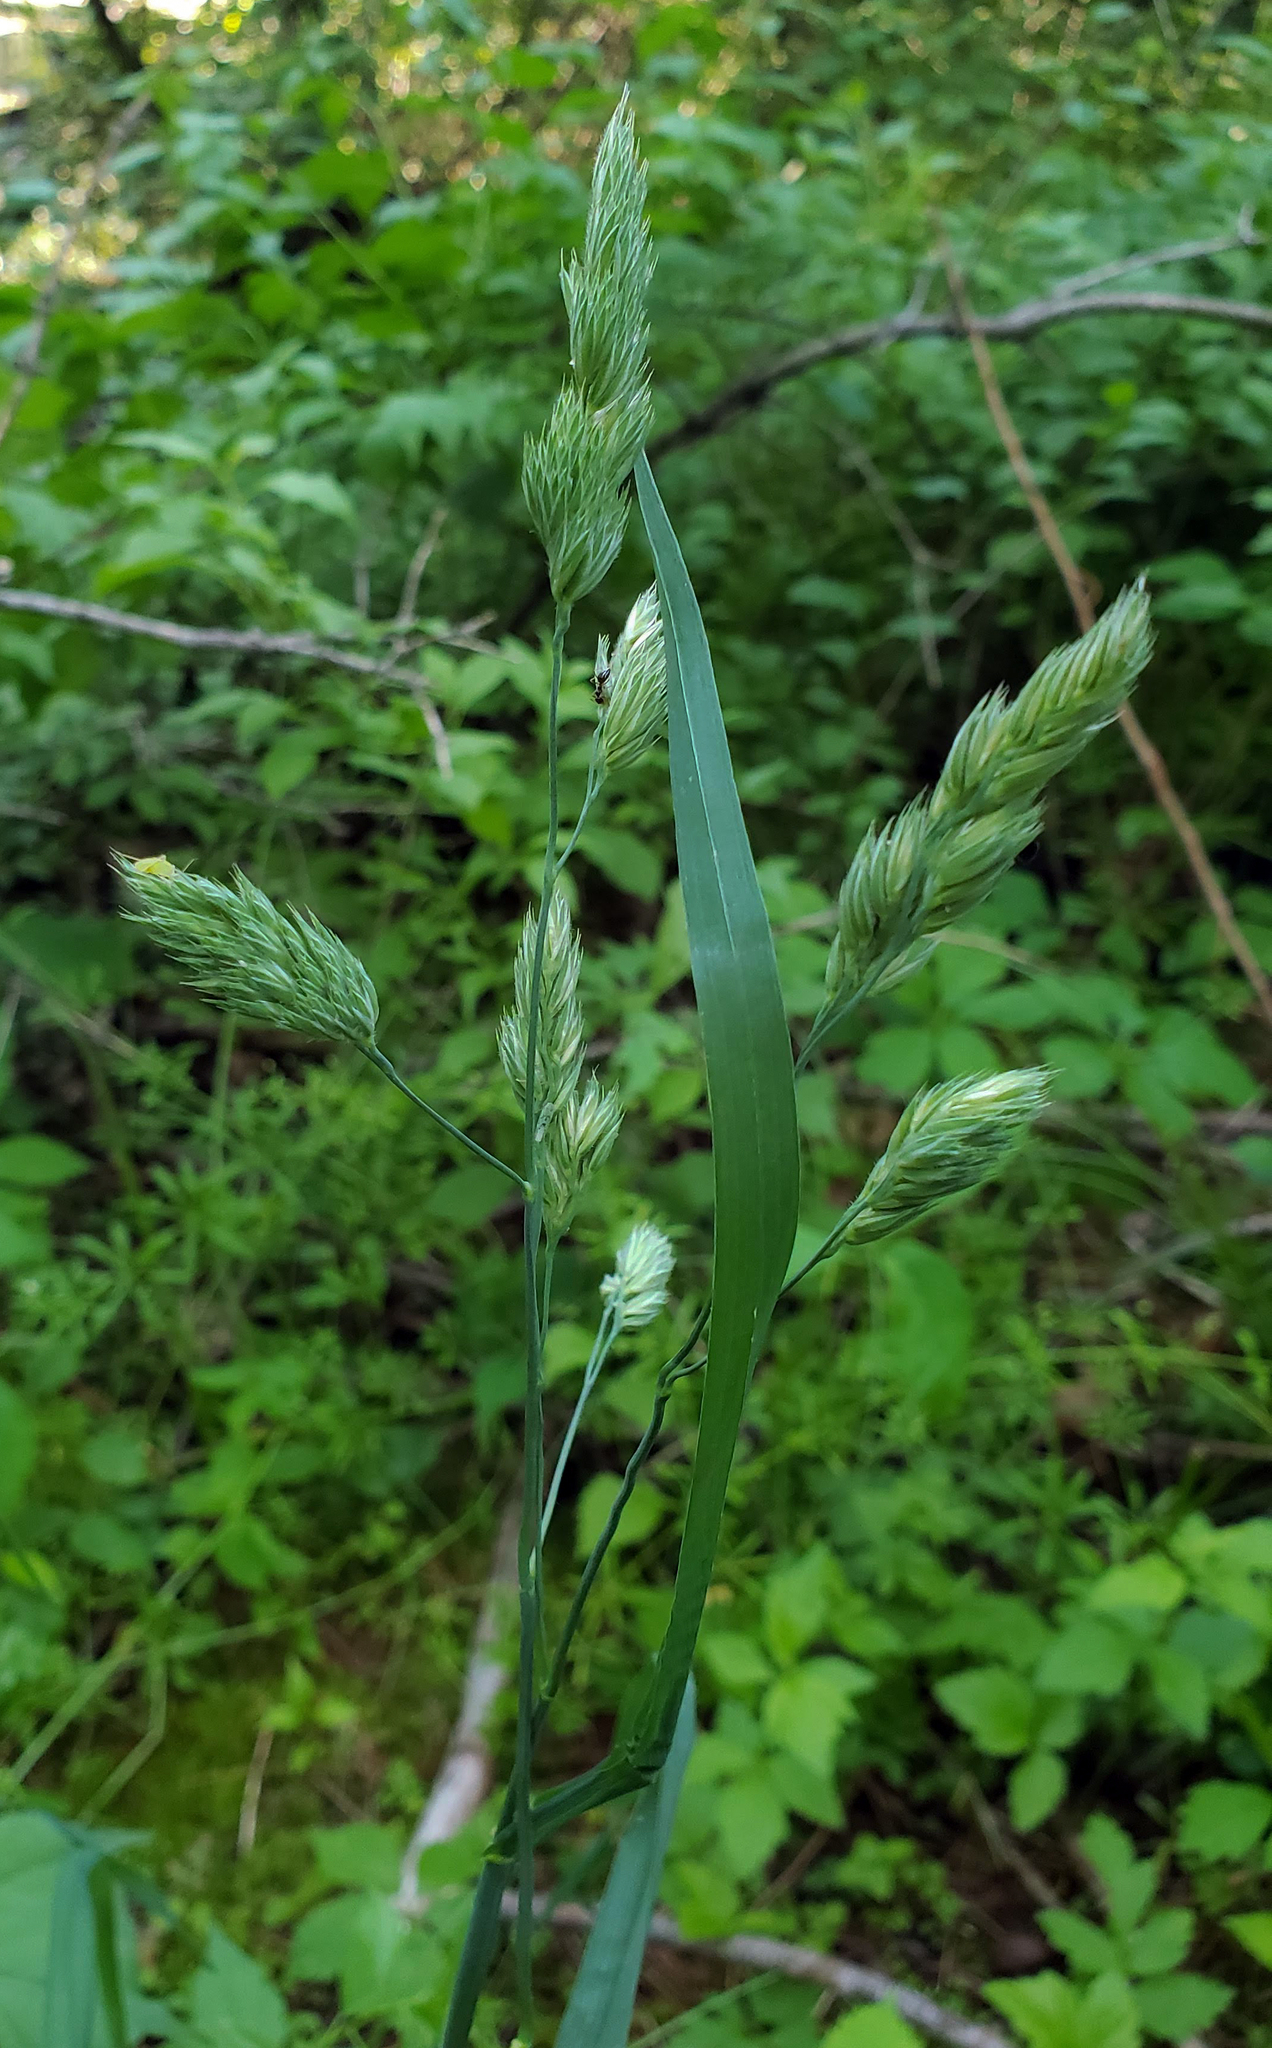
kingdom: Plantae
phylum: Tracheophyta
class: Liliopsida
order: Poales
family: Poaceae
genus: Dactylis
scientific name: Dactylis glomerata
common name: Orchardgrass
